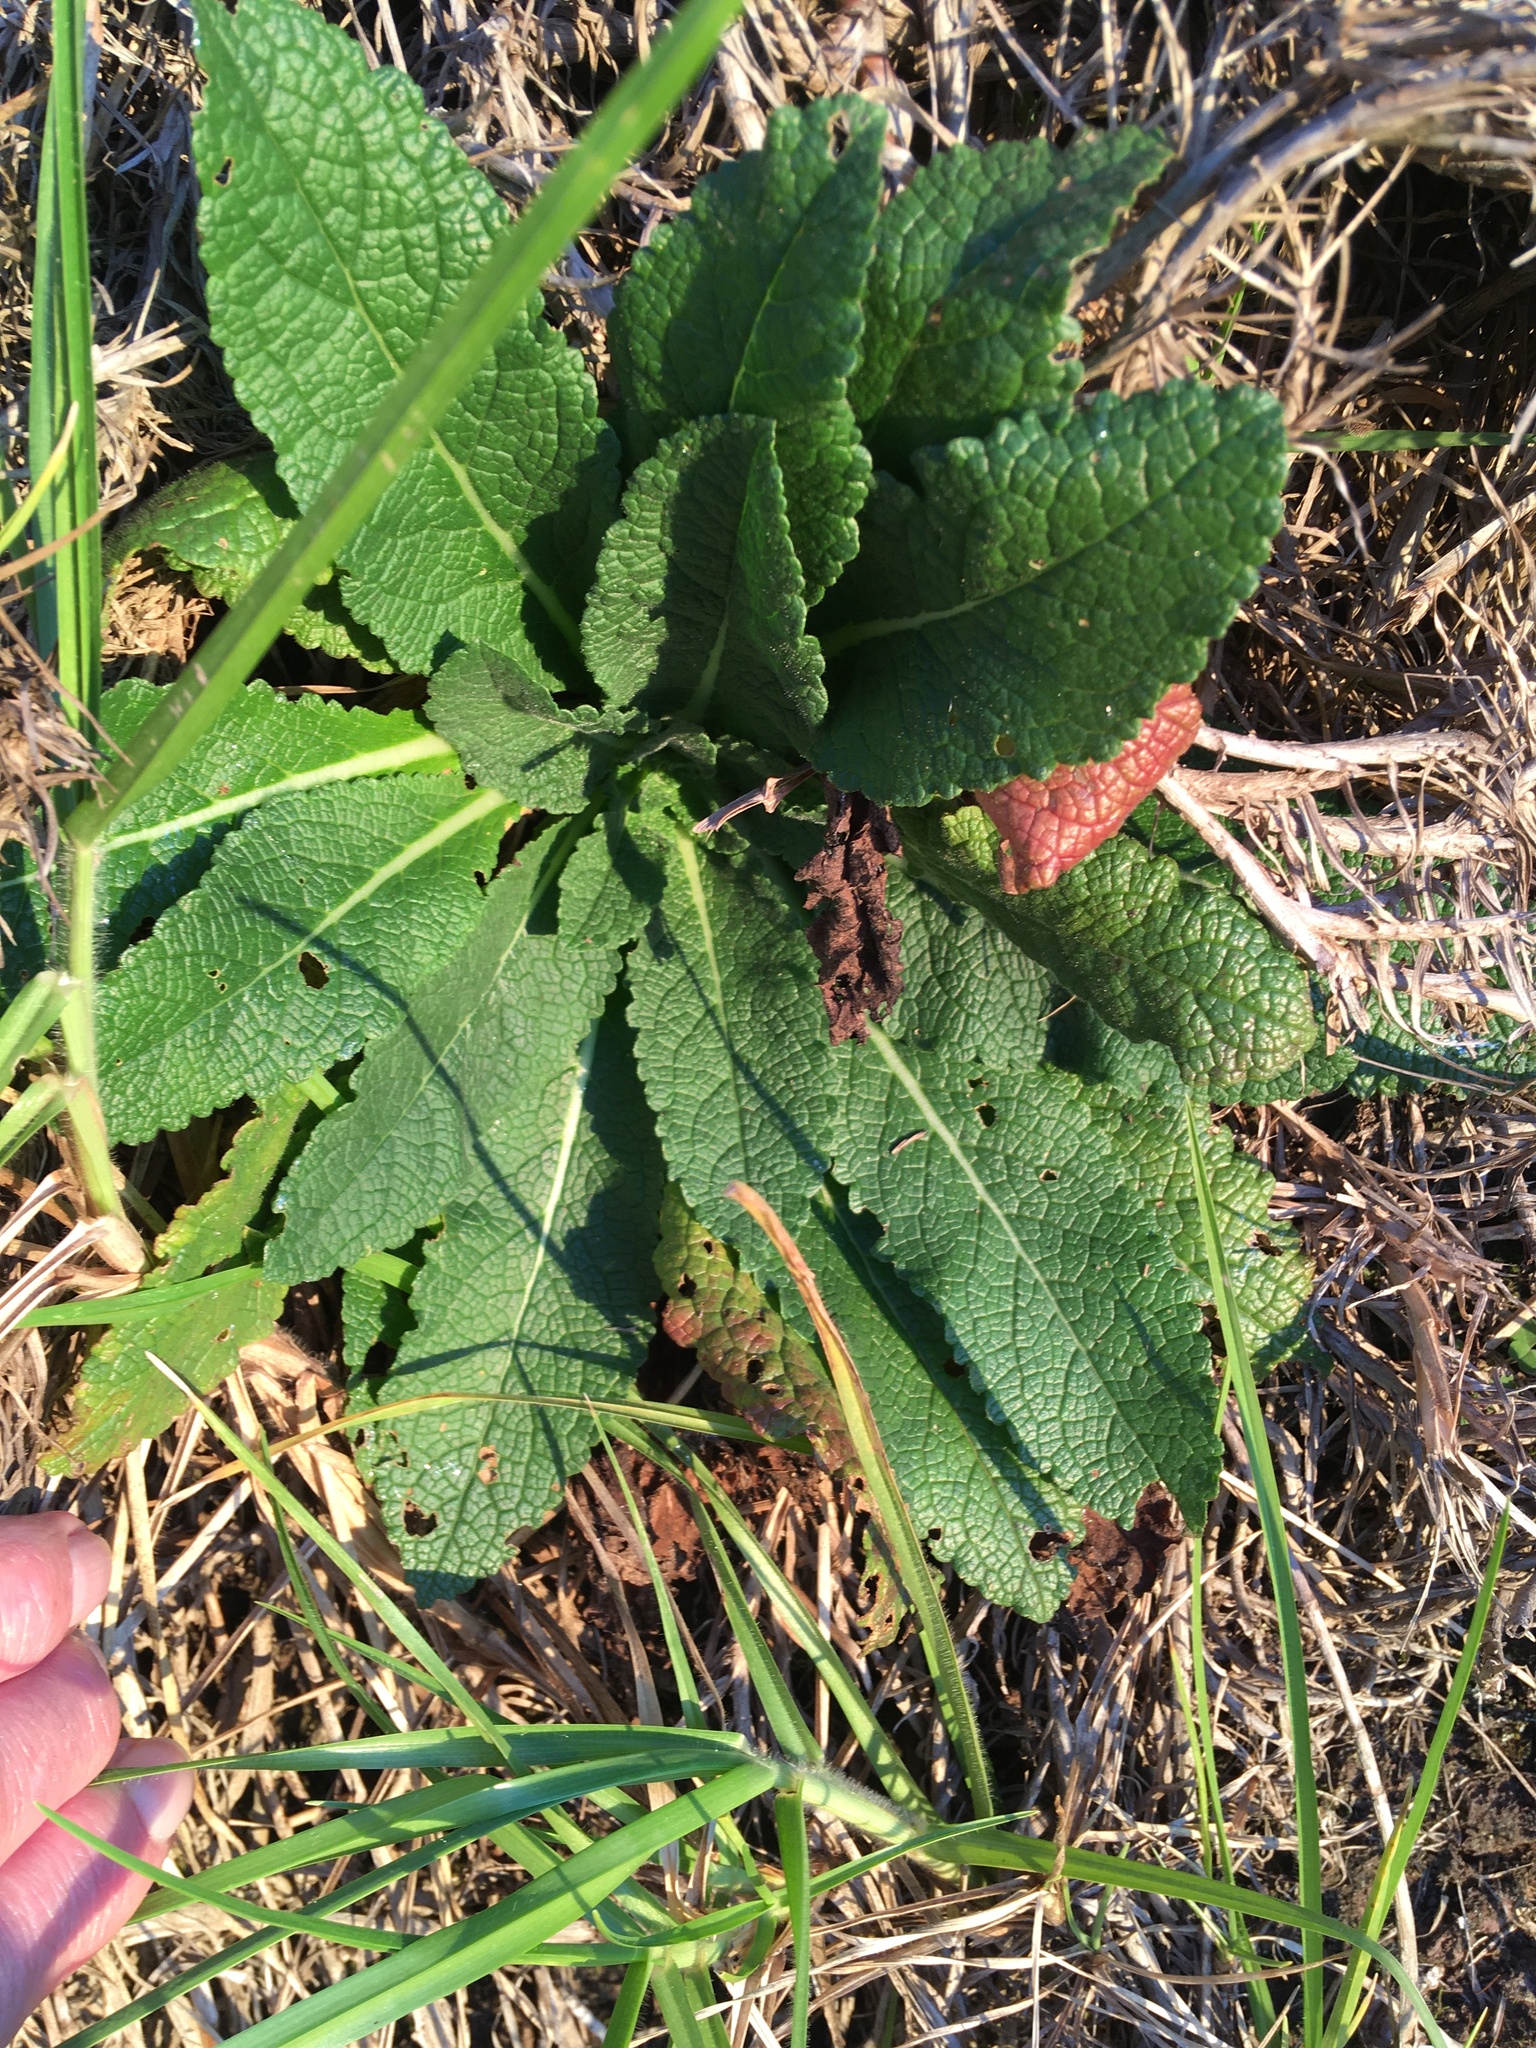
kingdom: Plantae
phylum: Tracheophyta
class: Magnoliopsida
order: Lamiales
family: Scrophulariaceae
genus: Verbascum
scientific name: Verbascum virgatum
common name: Twiggy mullein
